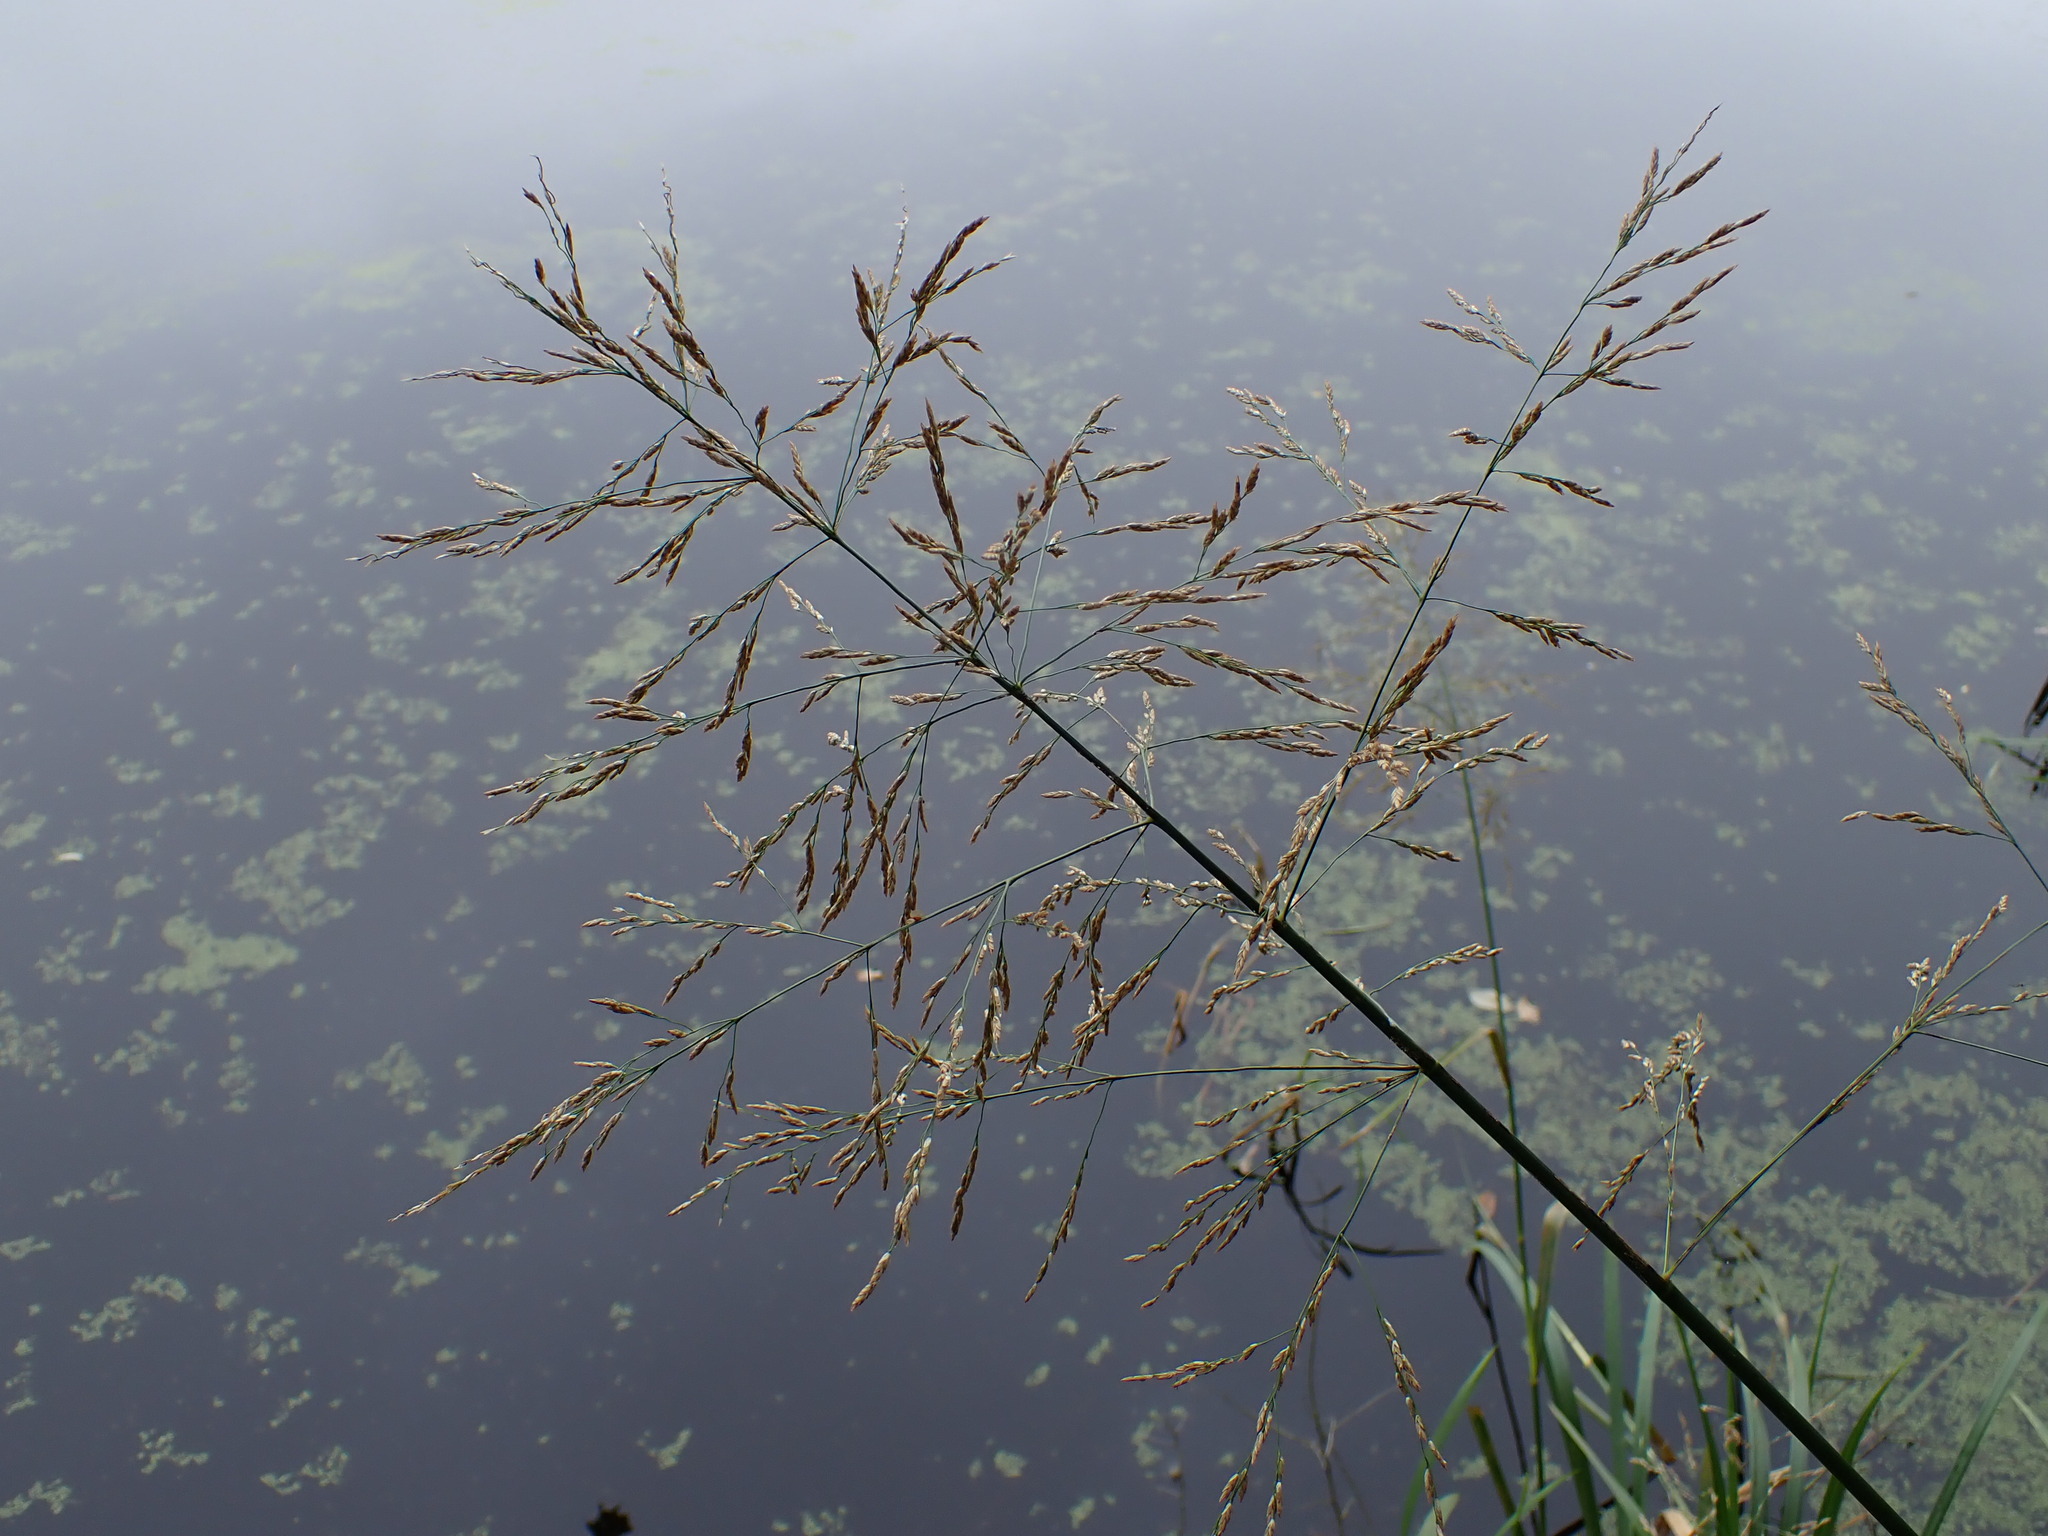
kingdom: Plantae
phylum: Tracheophyta
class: Liliopsida
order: Poales
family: Poaceae
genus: Glyceria
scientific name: Glyceria maxima
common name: Reed mannagrass
